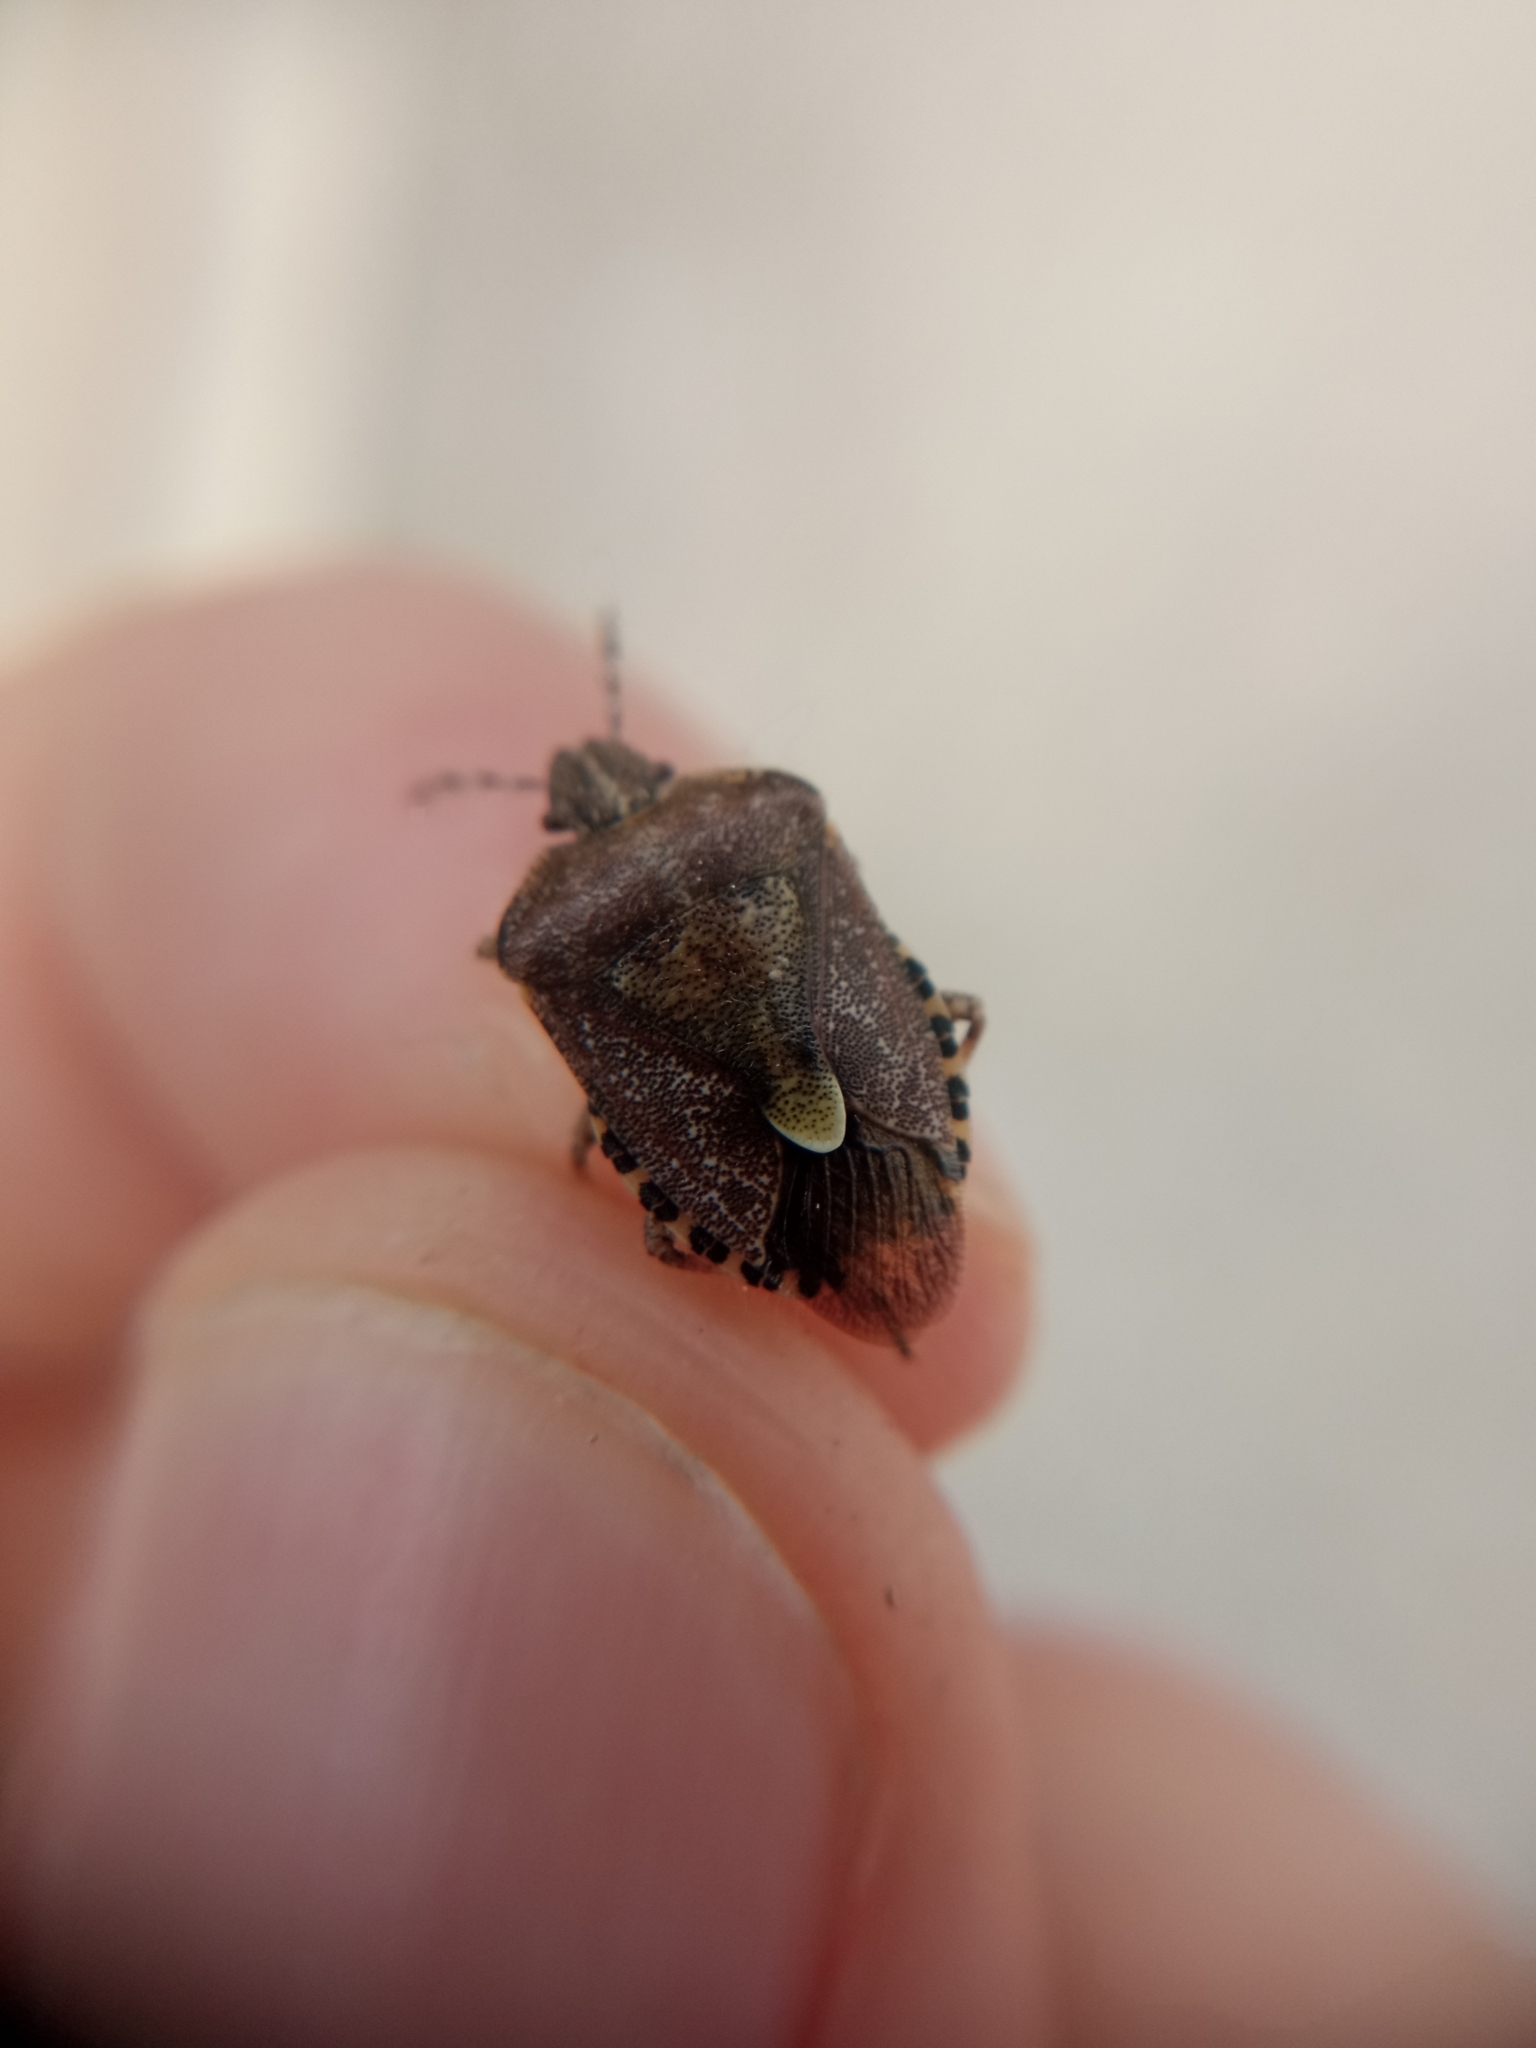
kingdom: Animalia
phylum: Arthropoda
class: Insecta
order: Hemiptera
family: Pentatomidae
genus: Dolycoris
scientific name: Dolycoris baccarum
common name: Sloe bug
